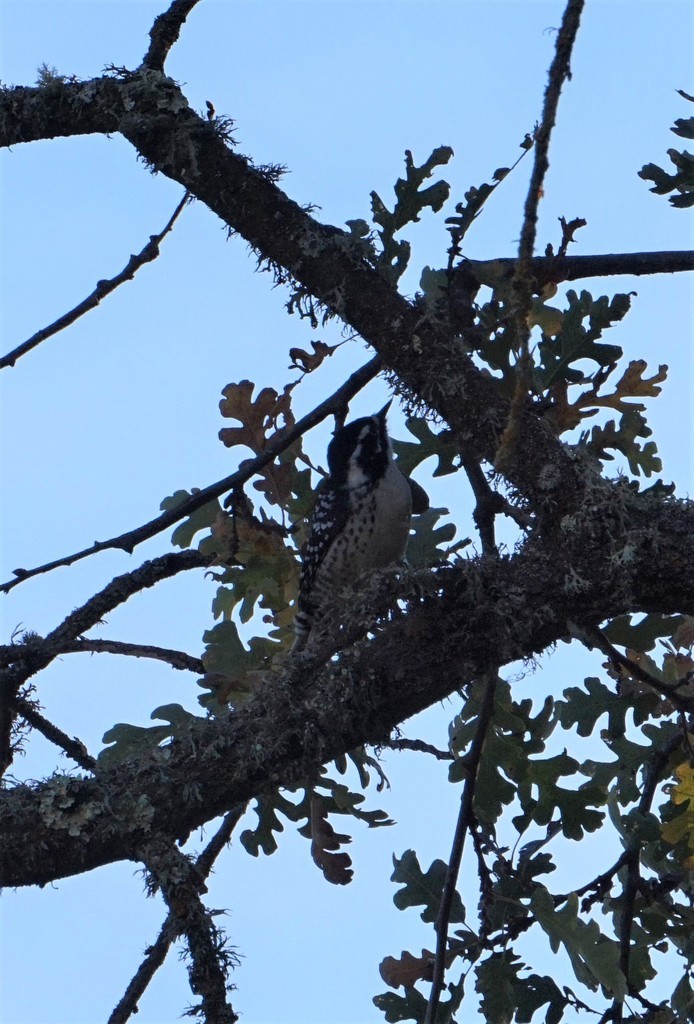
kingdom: Animalia
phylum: Chordata
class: Aves
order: Piciformes
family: Picidae
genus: Dryobates
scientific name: Dryobates nuttallii
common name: Nuttall's woodpecker
